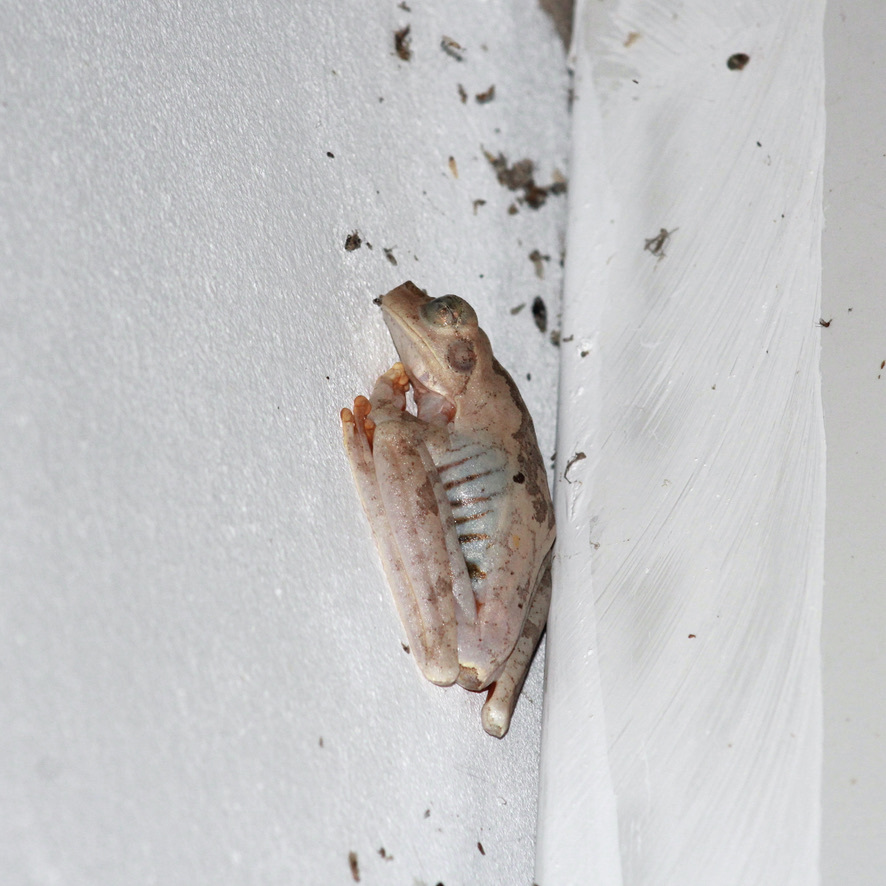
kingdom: Animalia
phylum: Chordata
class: Amphibia
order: Anura
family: Hylidae
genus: Boana
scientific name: Boana platanera
